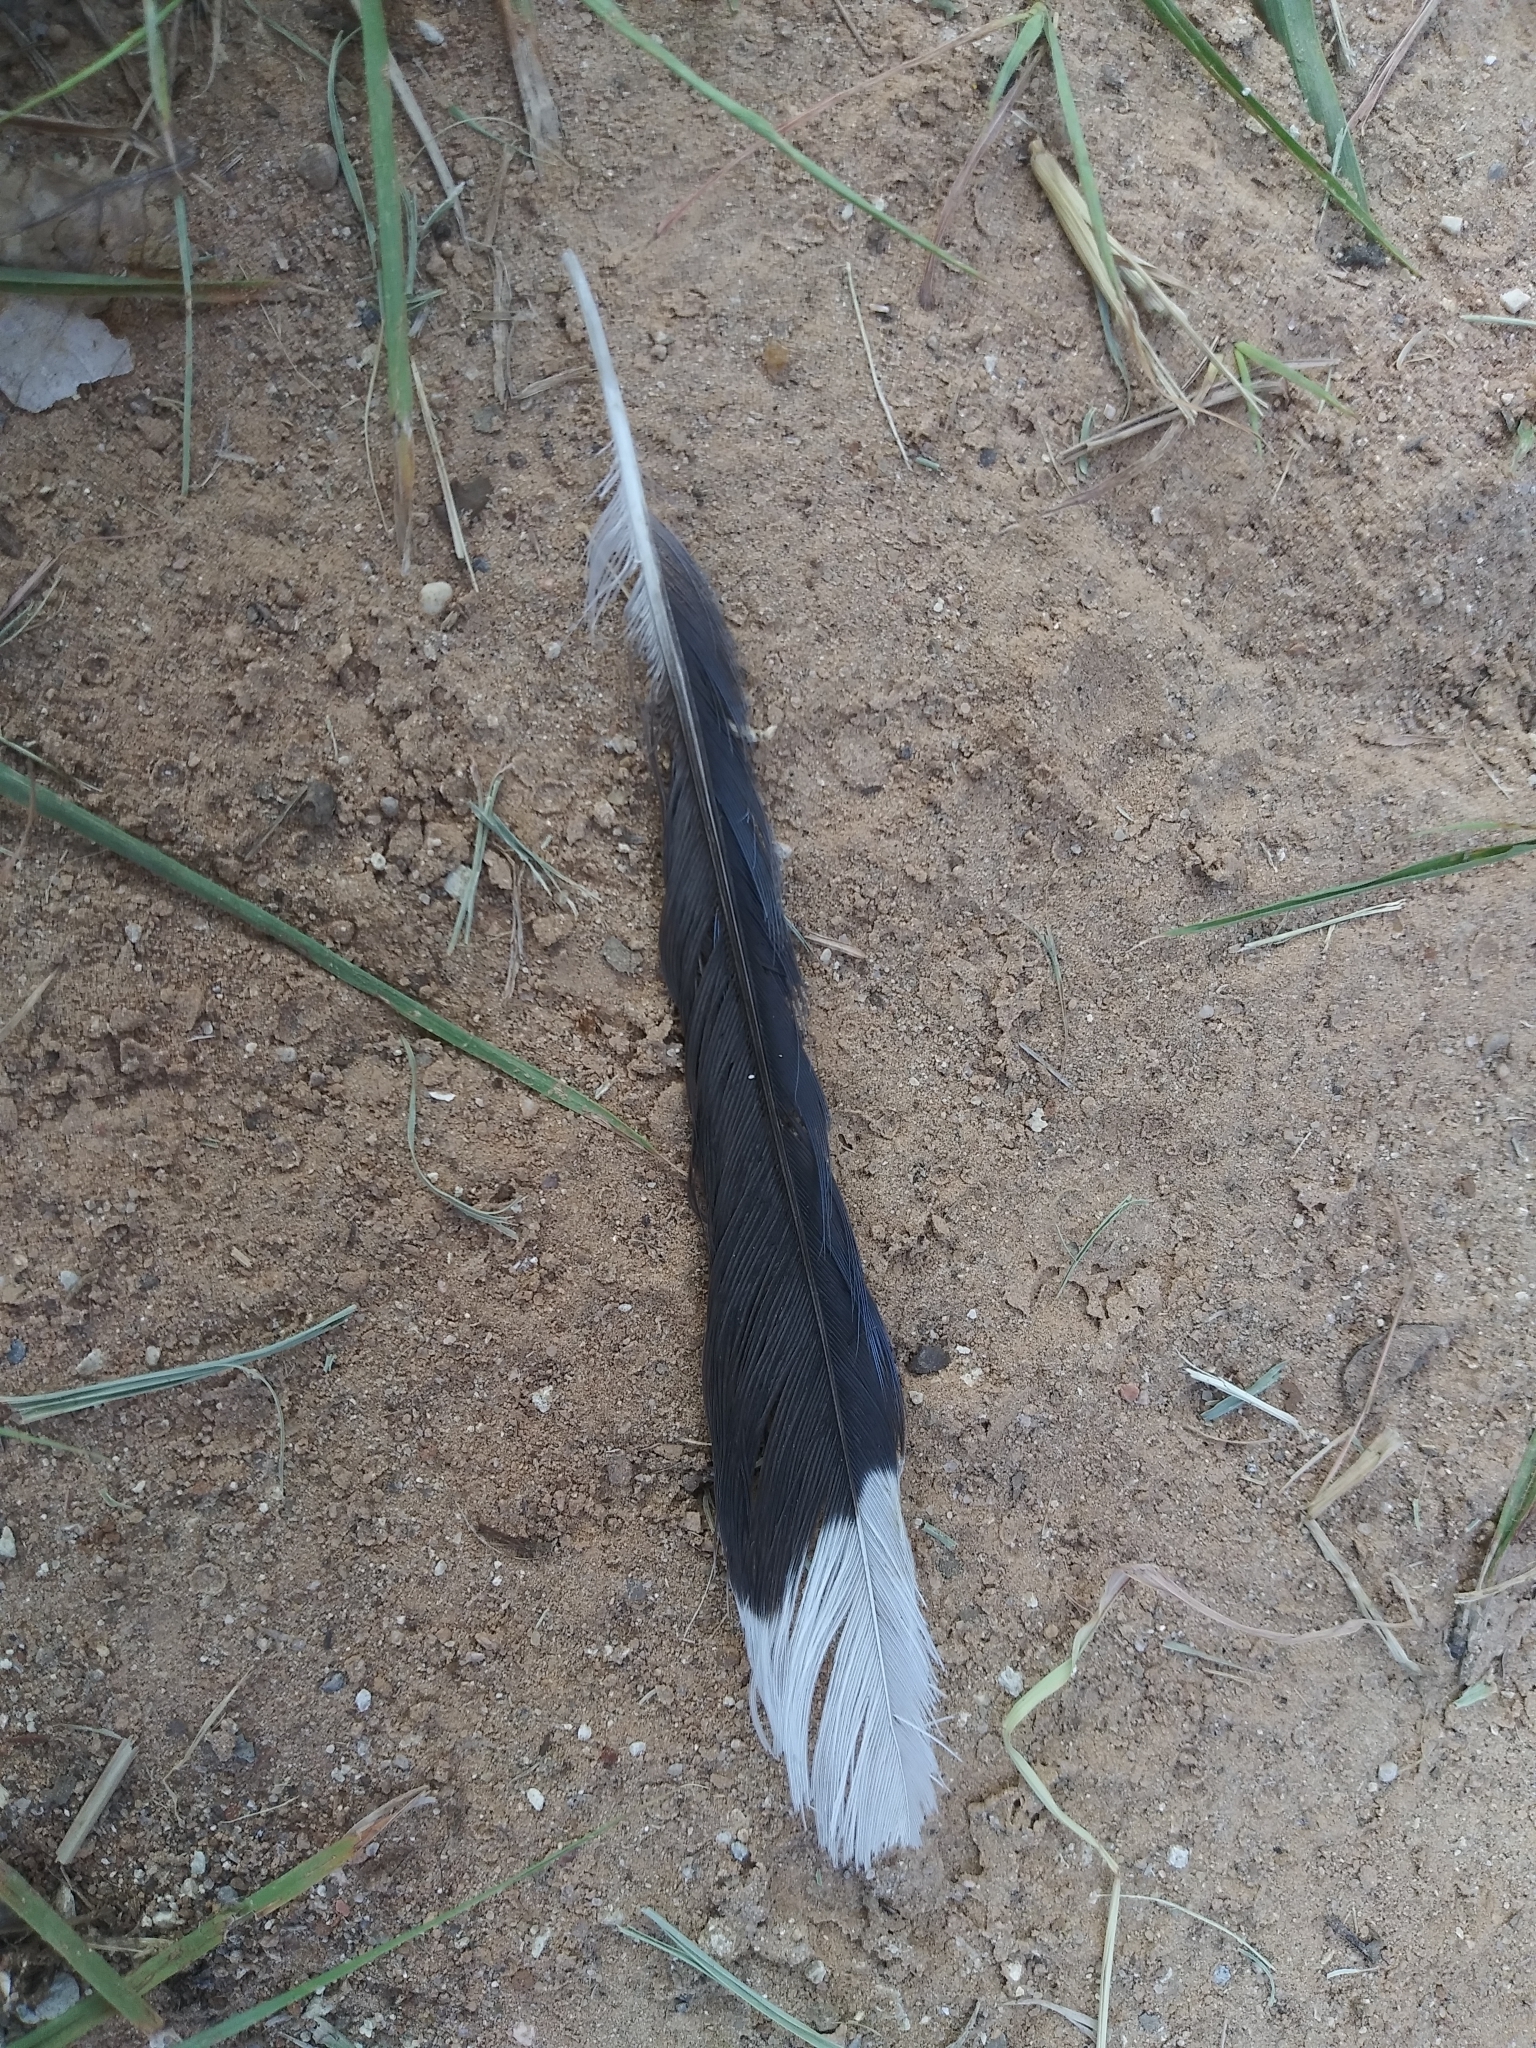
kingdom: Animalia
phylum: Chordata
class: Aves
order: Passeriformes
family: Corvidae
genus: Cyanocitta
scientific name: Cyanocitta cristata
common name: Blue jay
